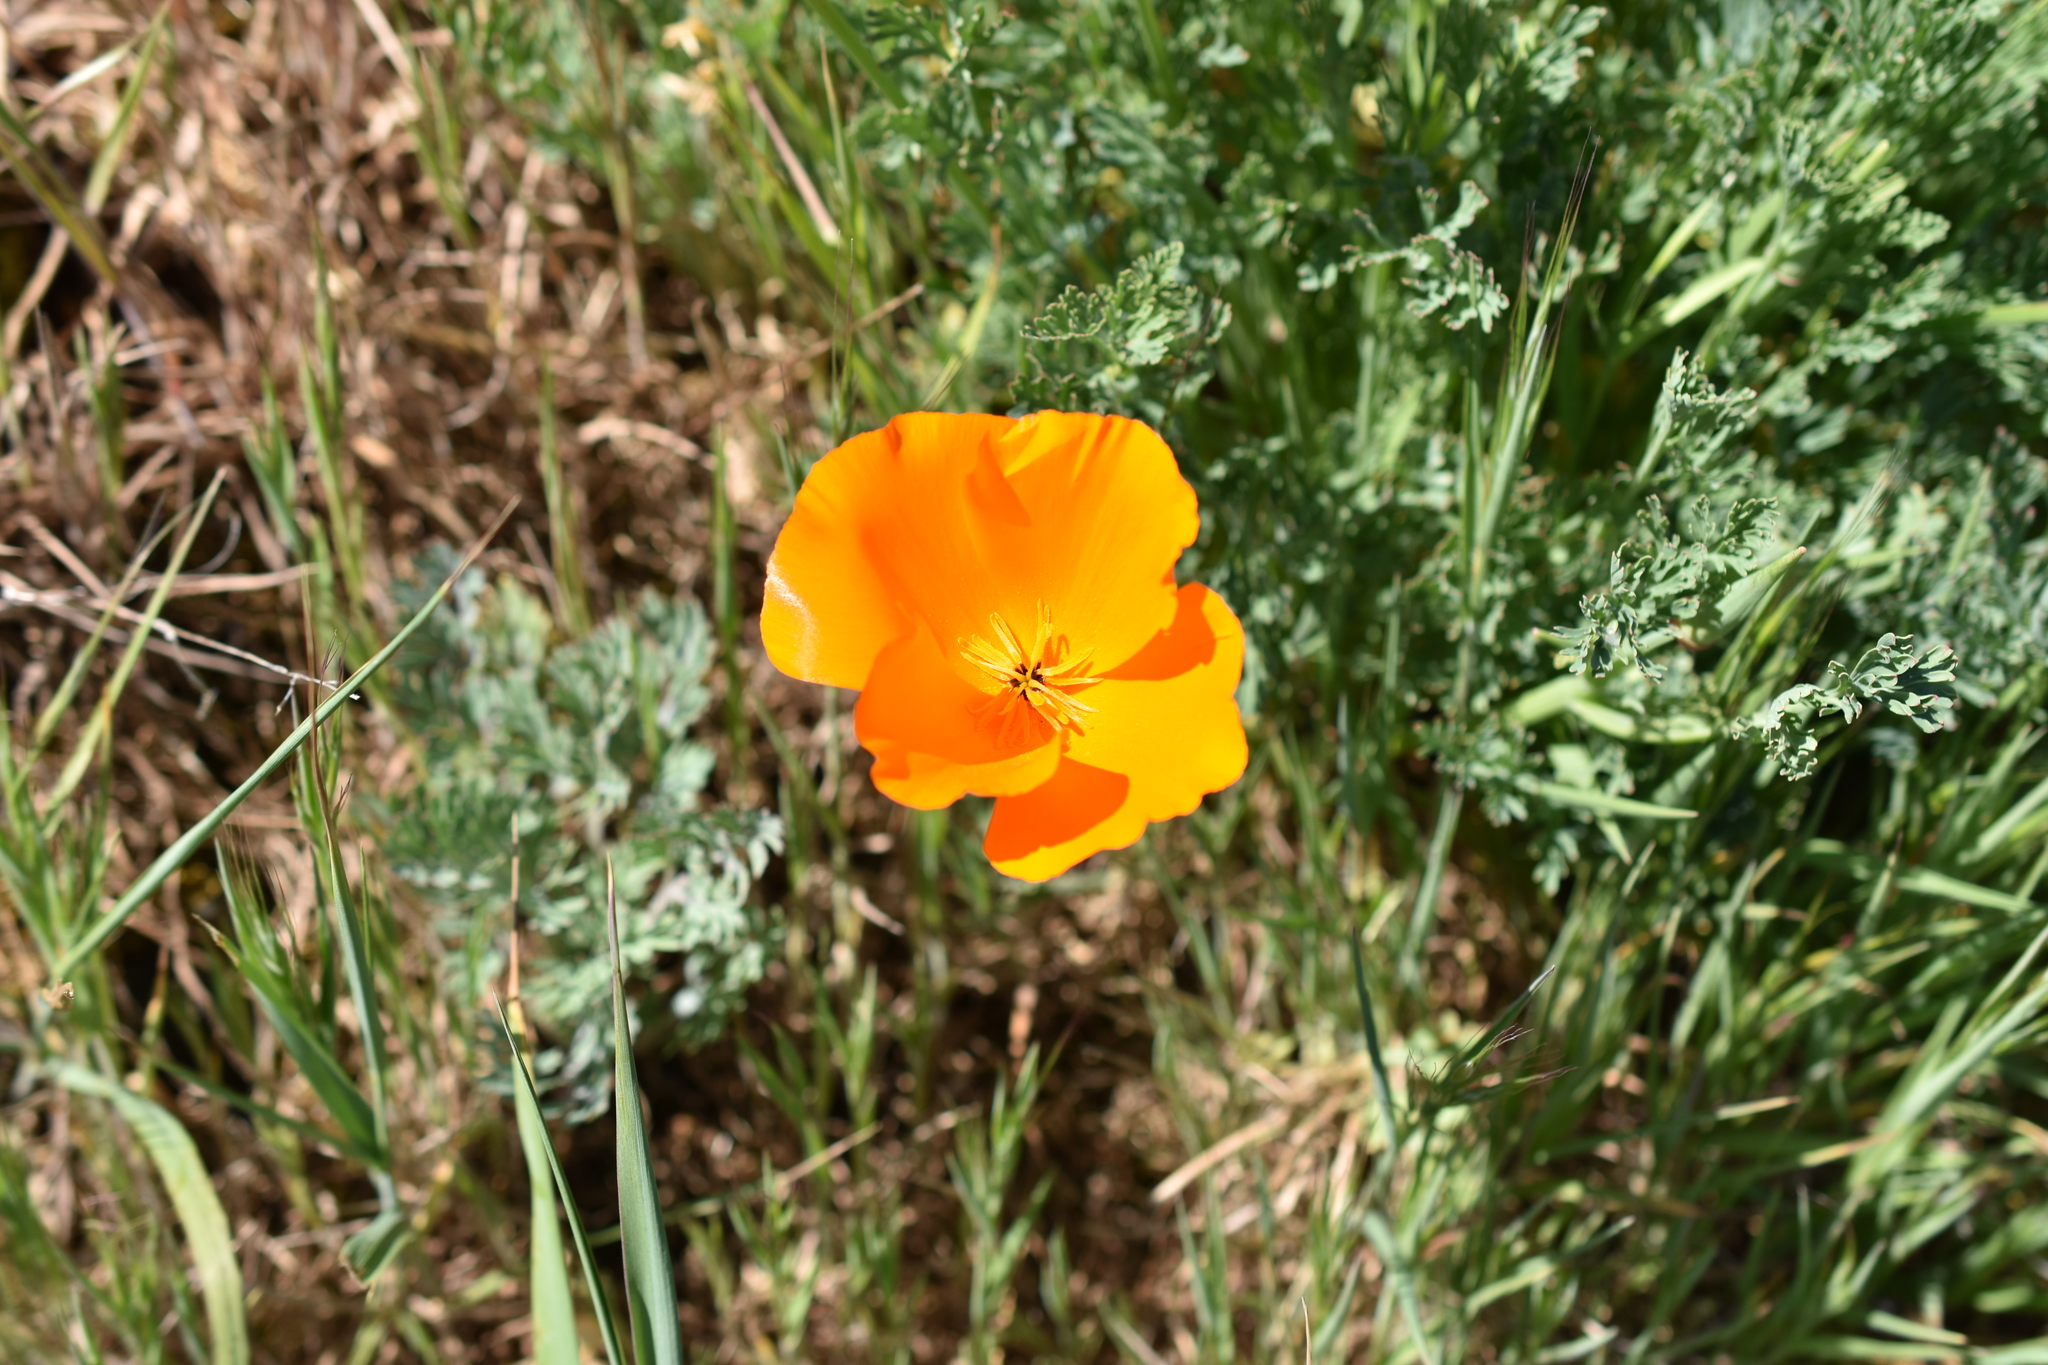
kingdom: Plantae
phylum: Tracheophyta
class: Magnoliopsida
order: Ranunculales
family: Papaveraceae
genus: Eschscholzia
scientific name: Eschscholzia californica
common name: California poppy
